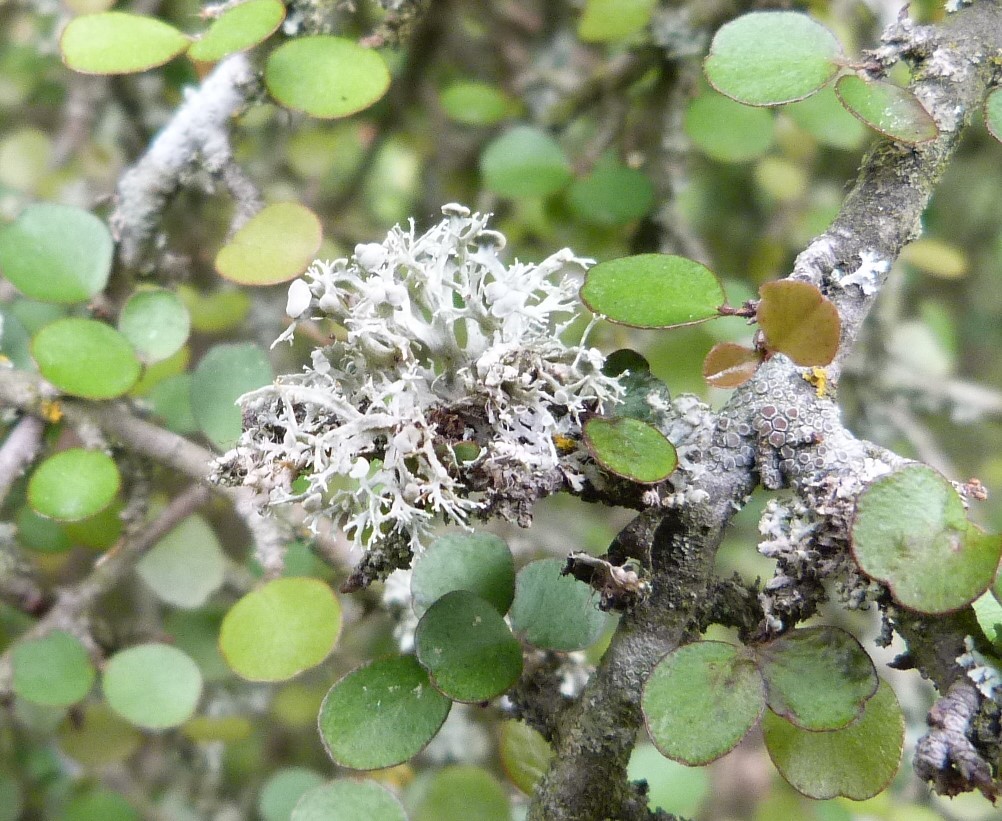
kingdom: Fungi
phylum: Ascomycota
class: Lecanoromycetes
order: Lecanorales
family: Ramalinaceae
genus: Ramalina
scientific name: Ramalina inflata
